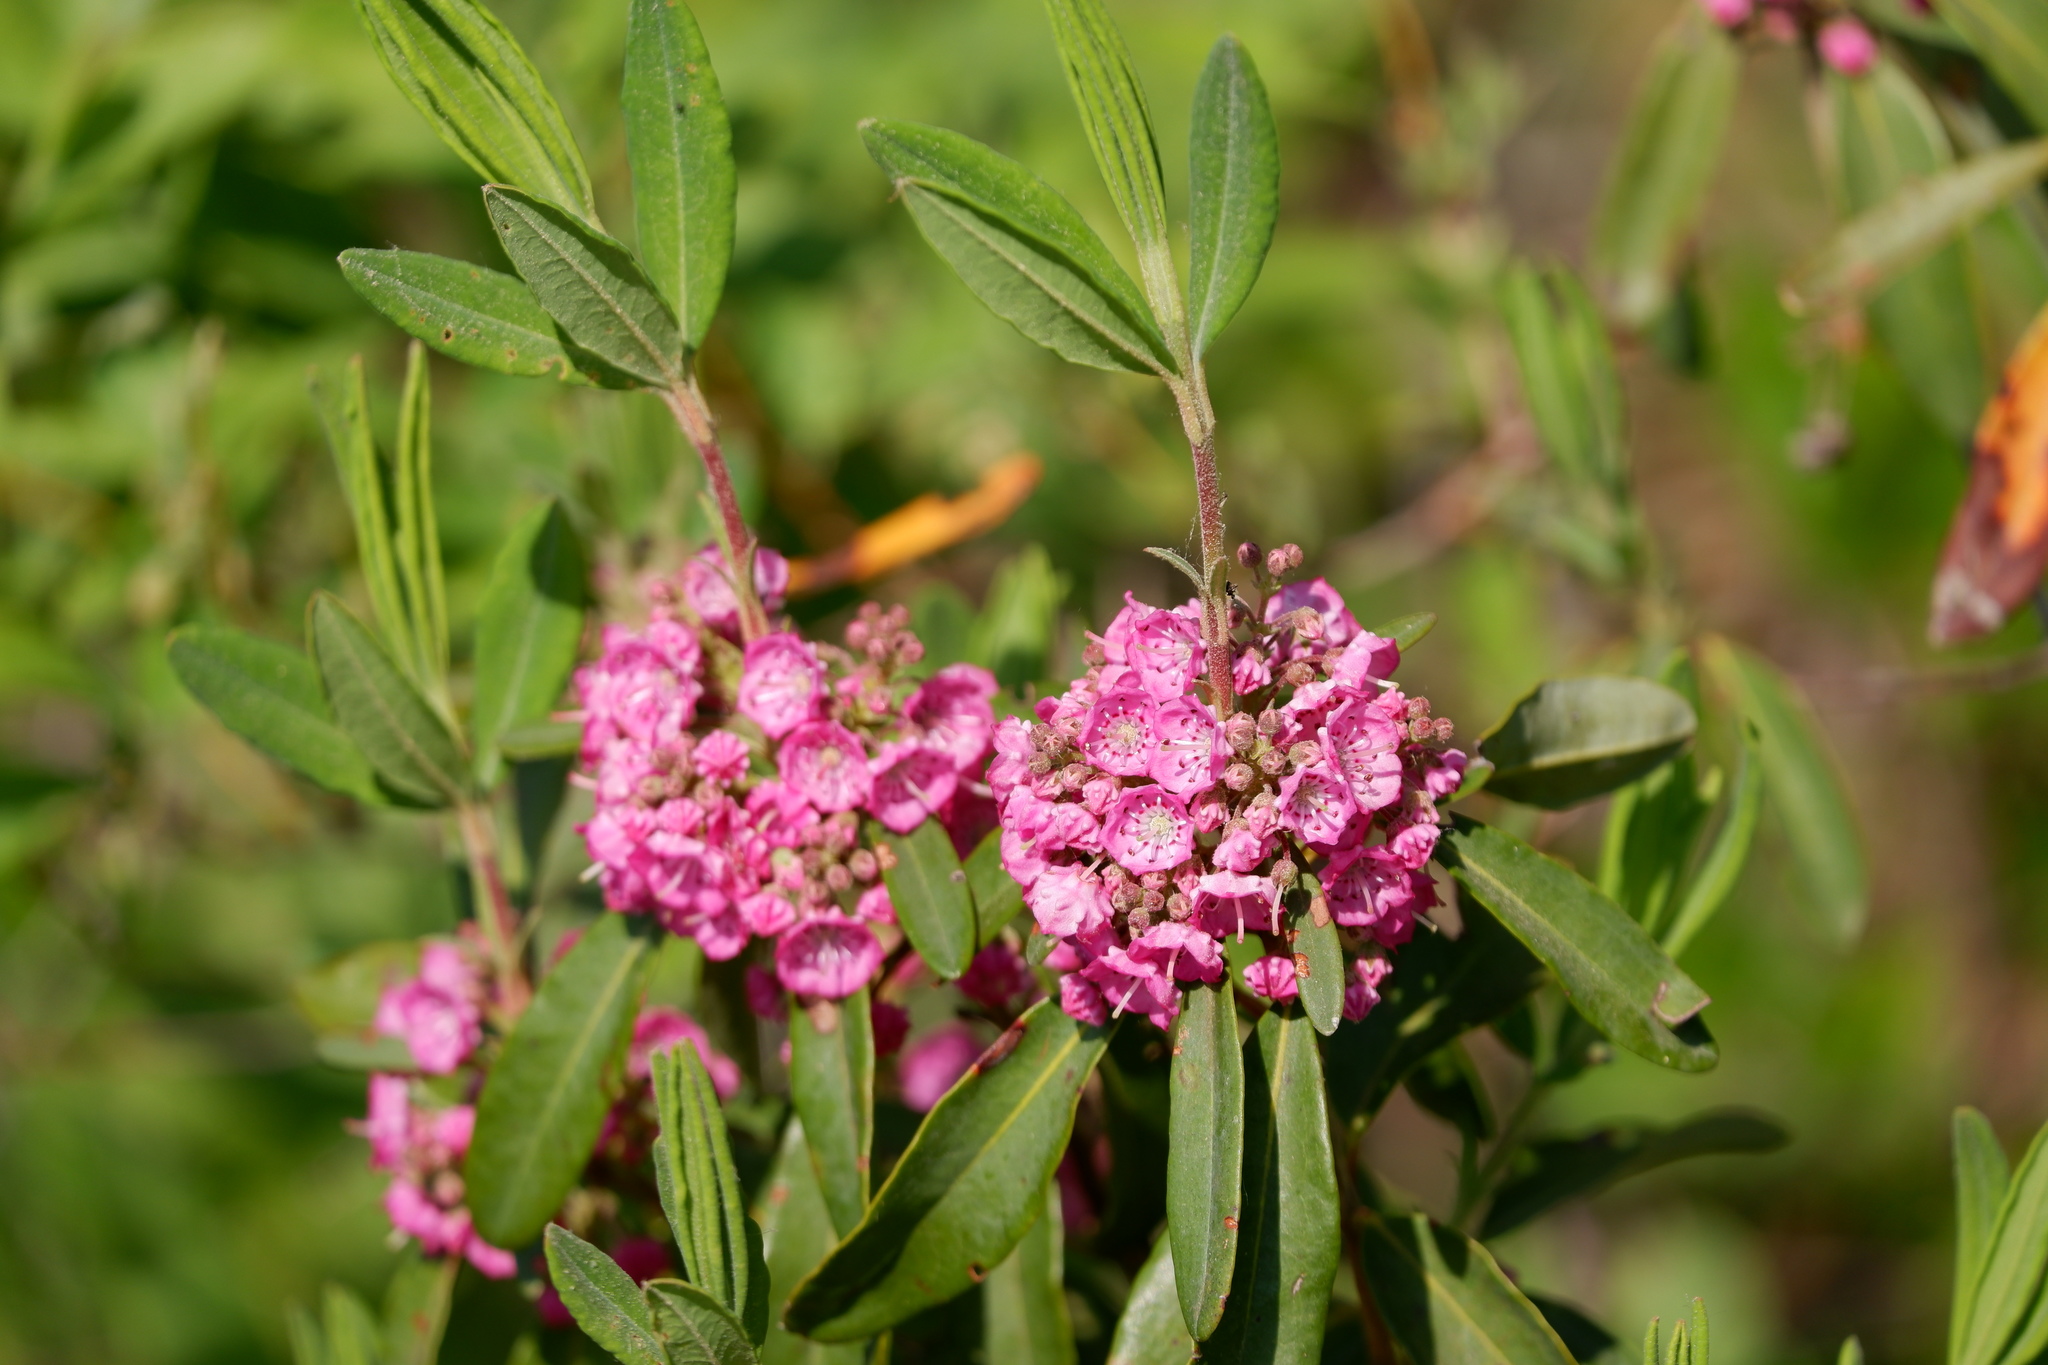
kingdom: Plantae
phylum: Tracheophyta
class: Magnoliopsida
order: Ericales
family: Ericaceae
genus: Kalmia
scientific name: Kalmia angustifolia
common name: Sheep-laurel
